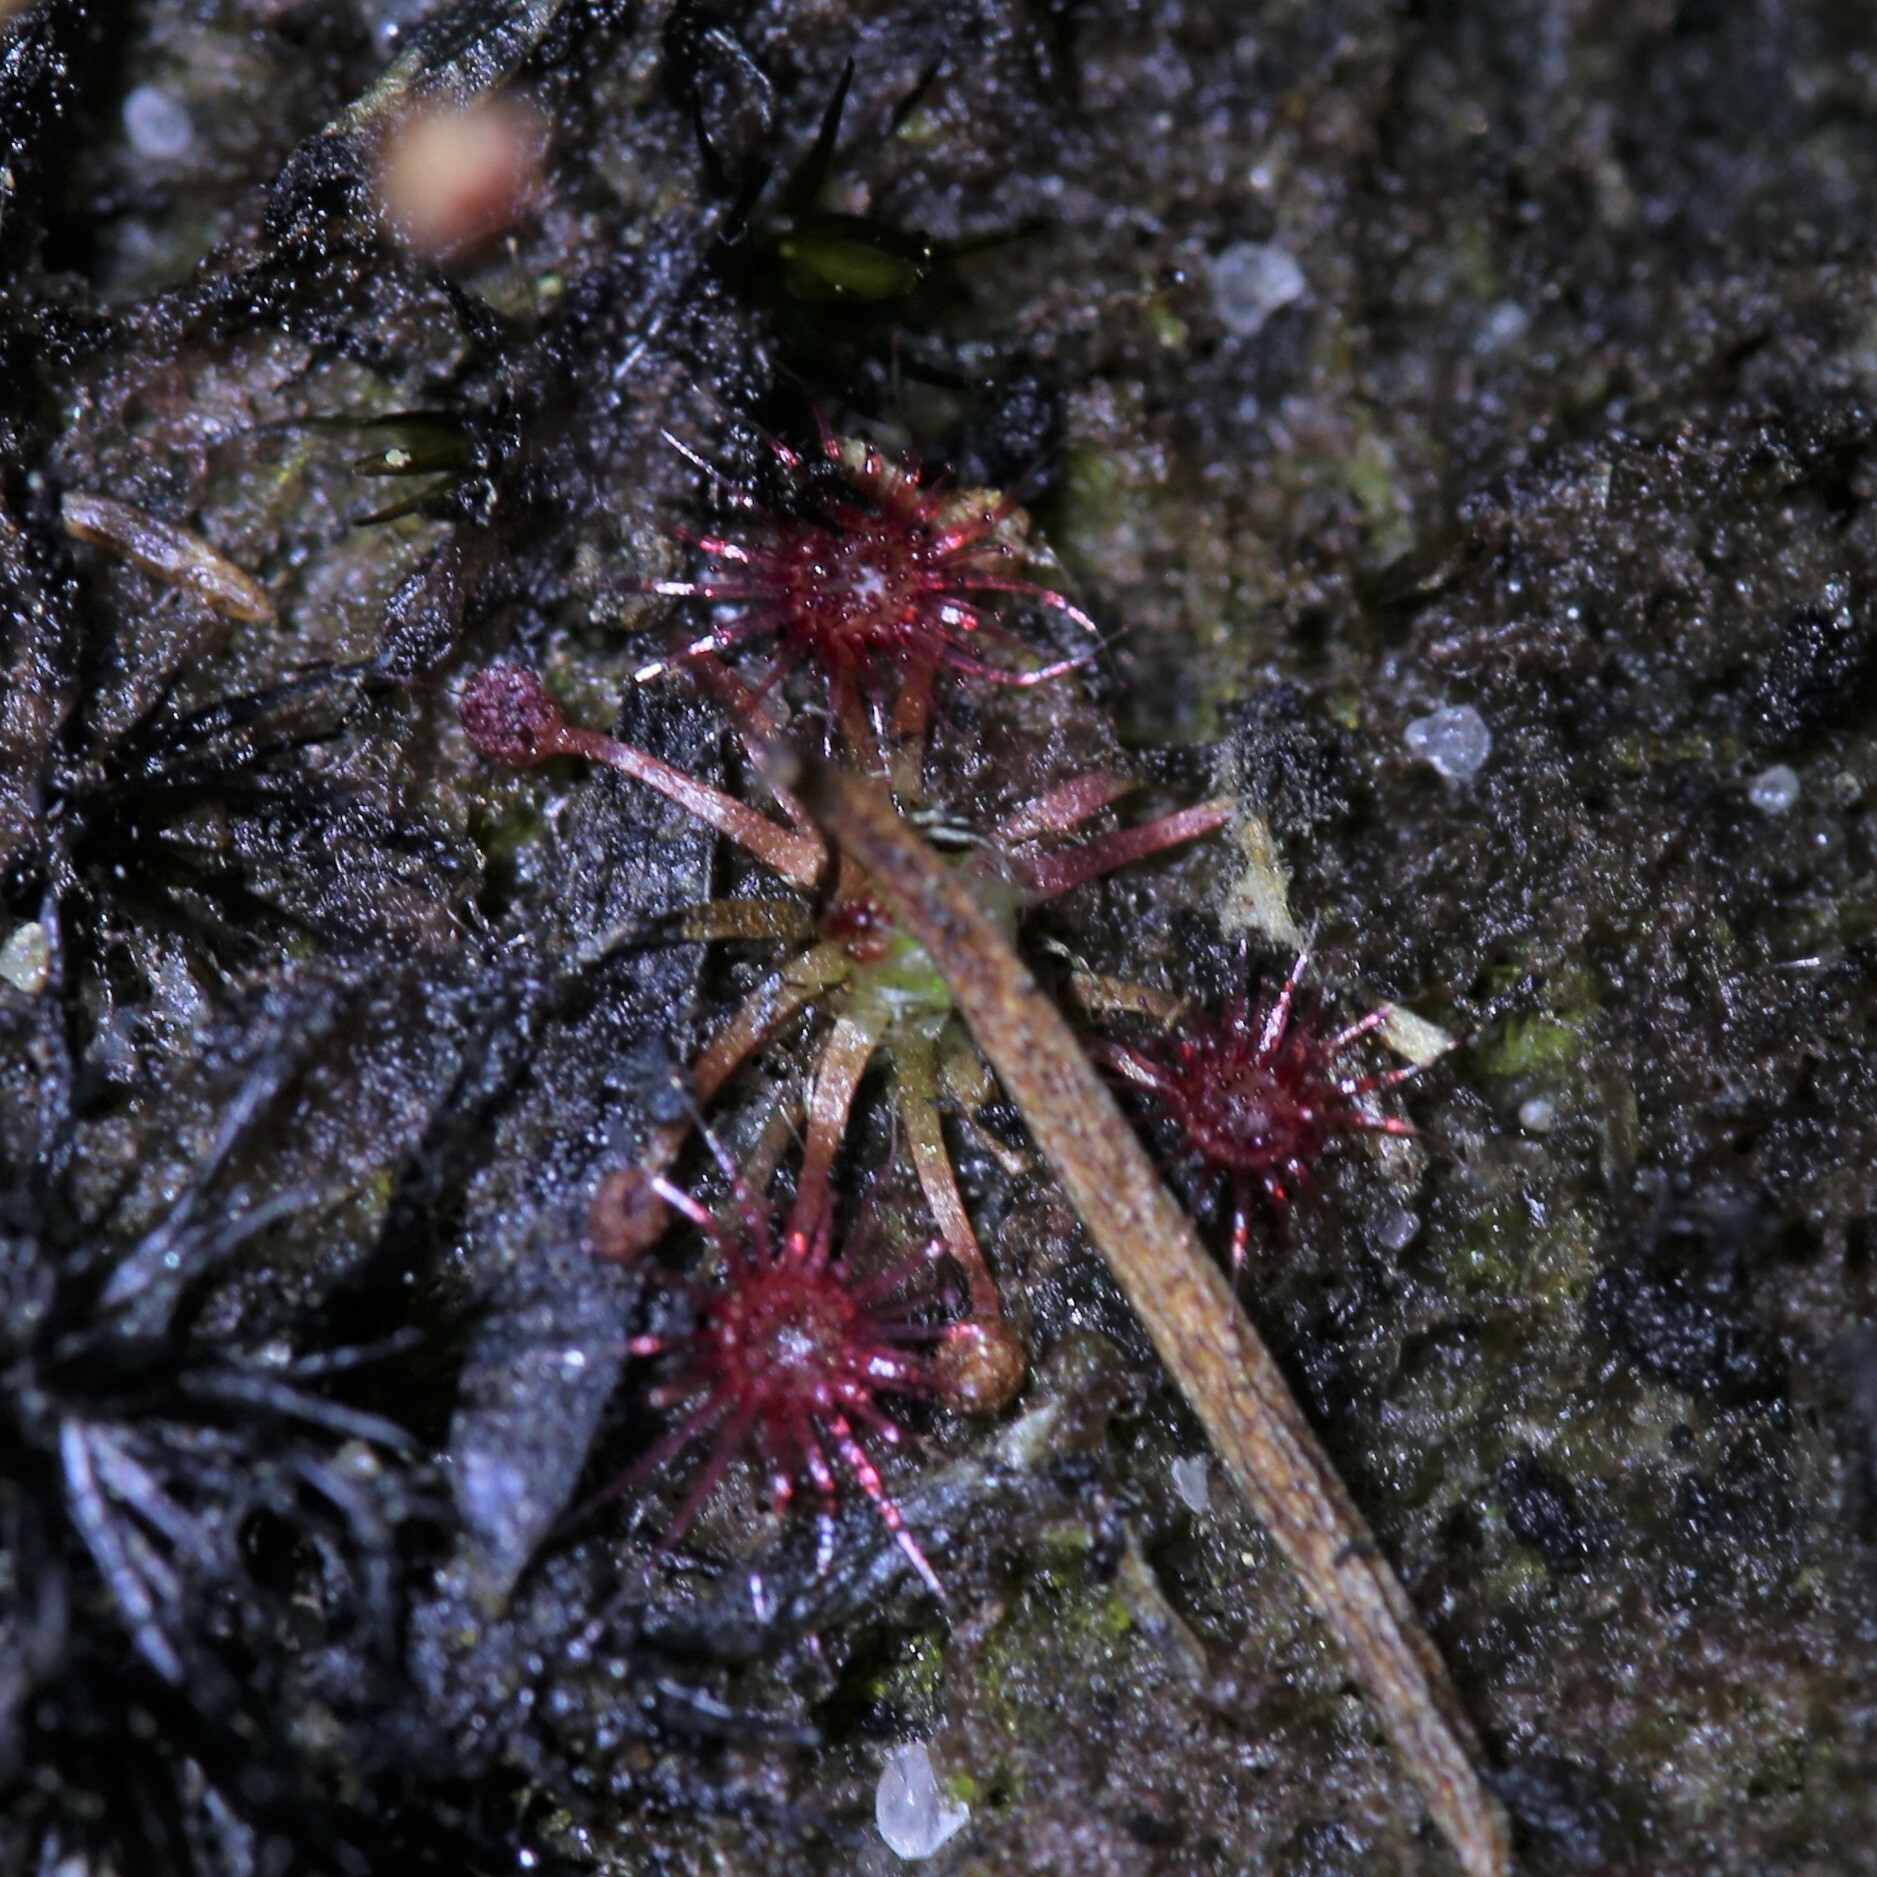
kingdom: Plantae
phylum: Tracheophyta
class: Magnoliopsida
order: Caryophyllales
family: Droseraceae
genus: Drosera
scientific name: Drosera pygmaea
